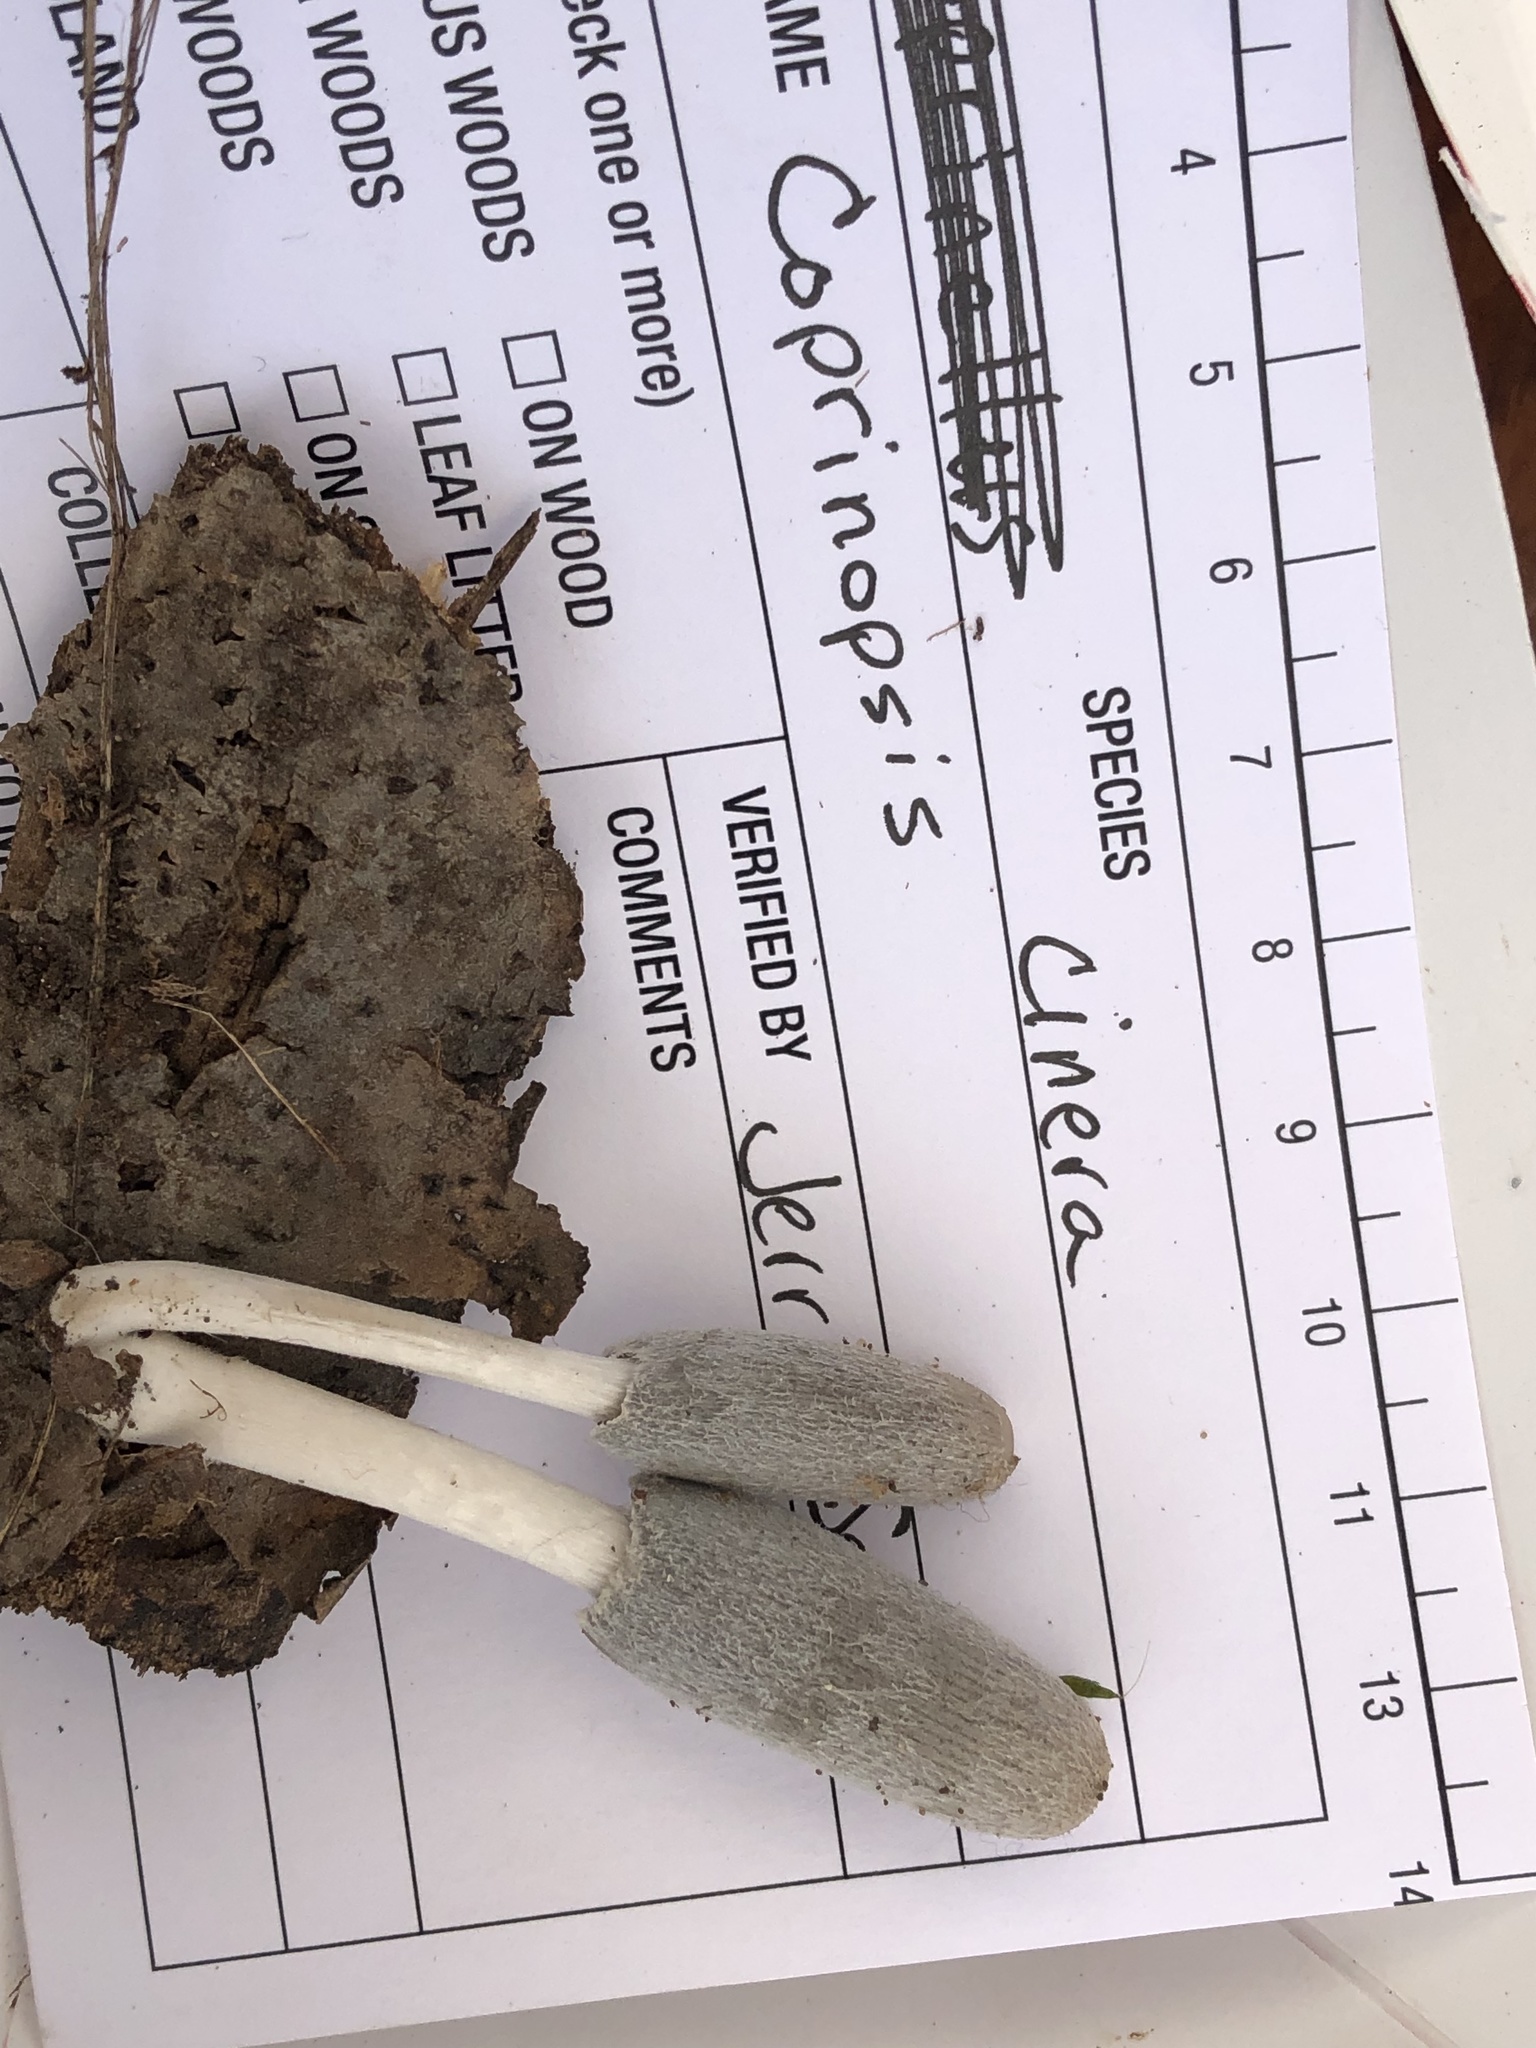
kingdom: Fungi
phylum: Basidiomycota
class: Agaricomycetes
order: Agaricales
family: Psathyrellaceae
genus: Coprinopsis
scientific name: Coprinopsis cinerea
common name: Grey inkcap
